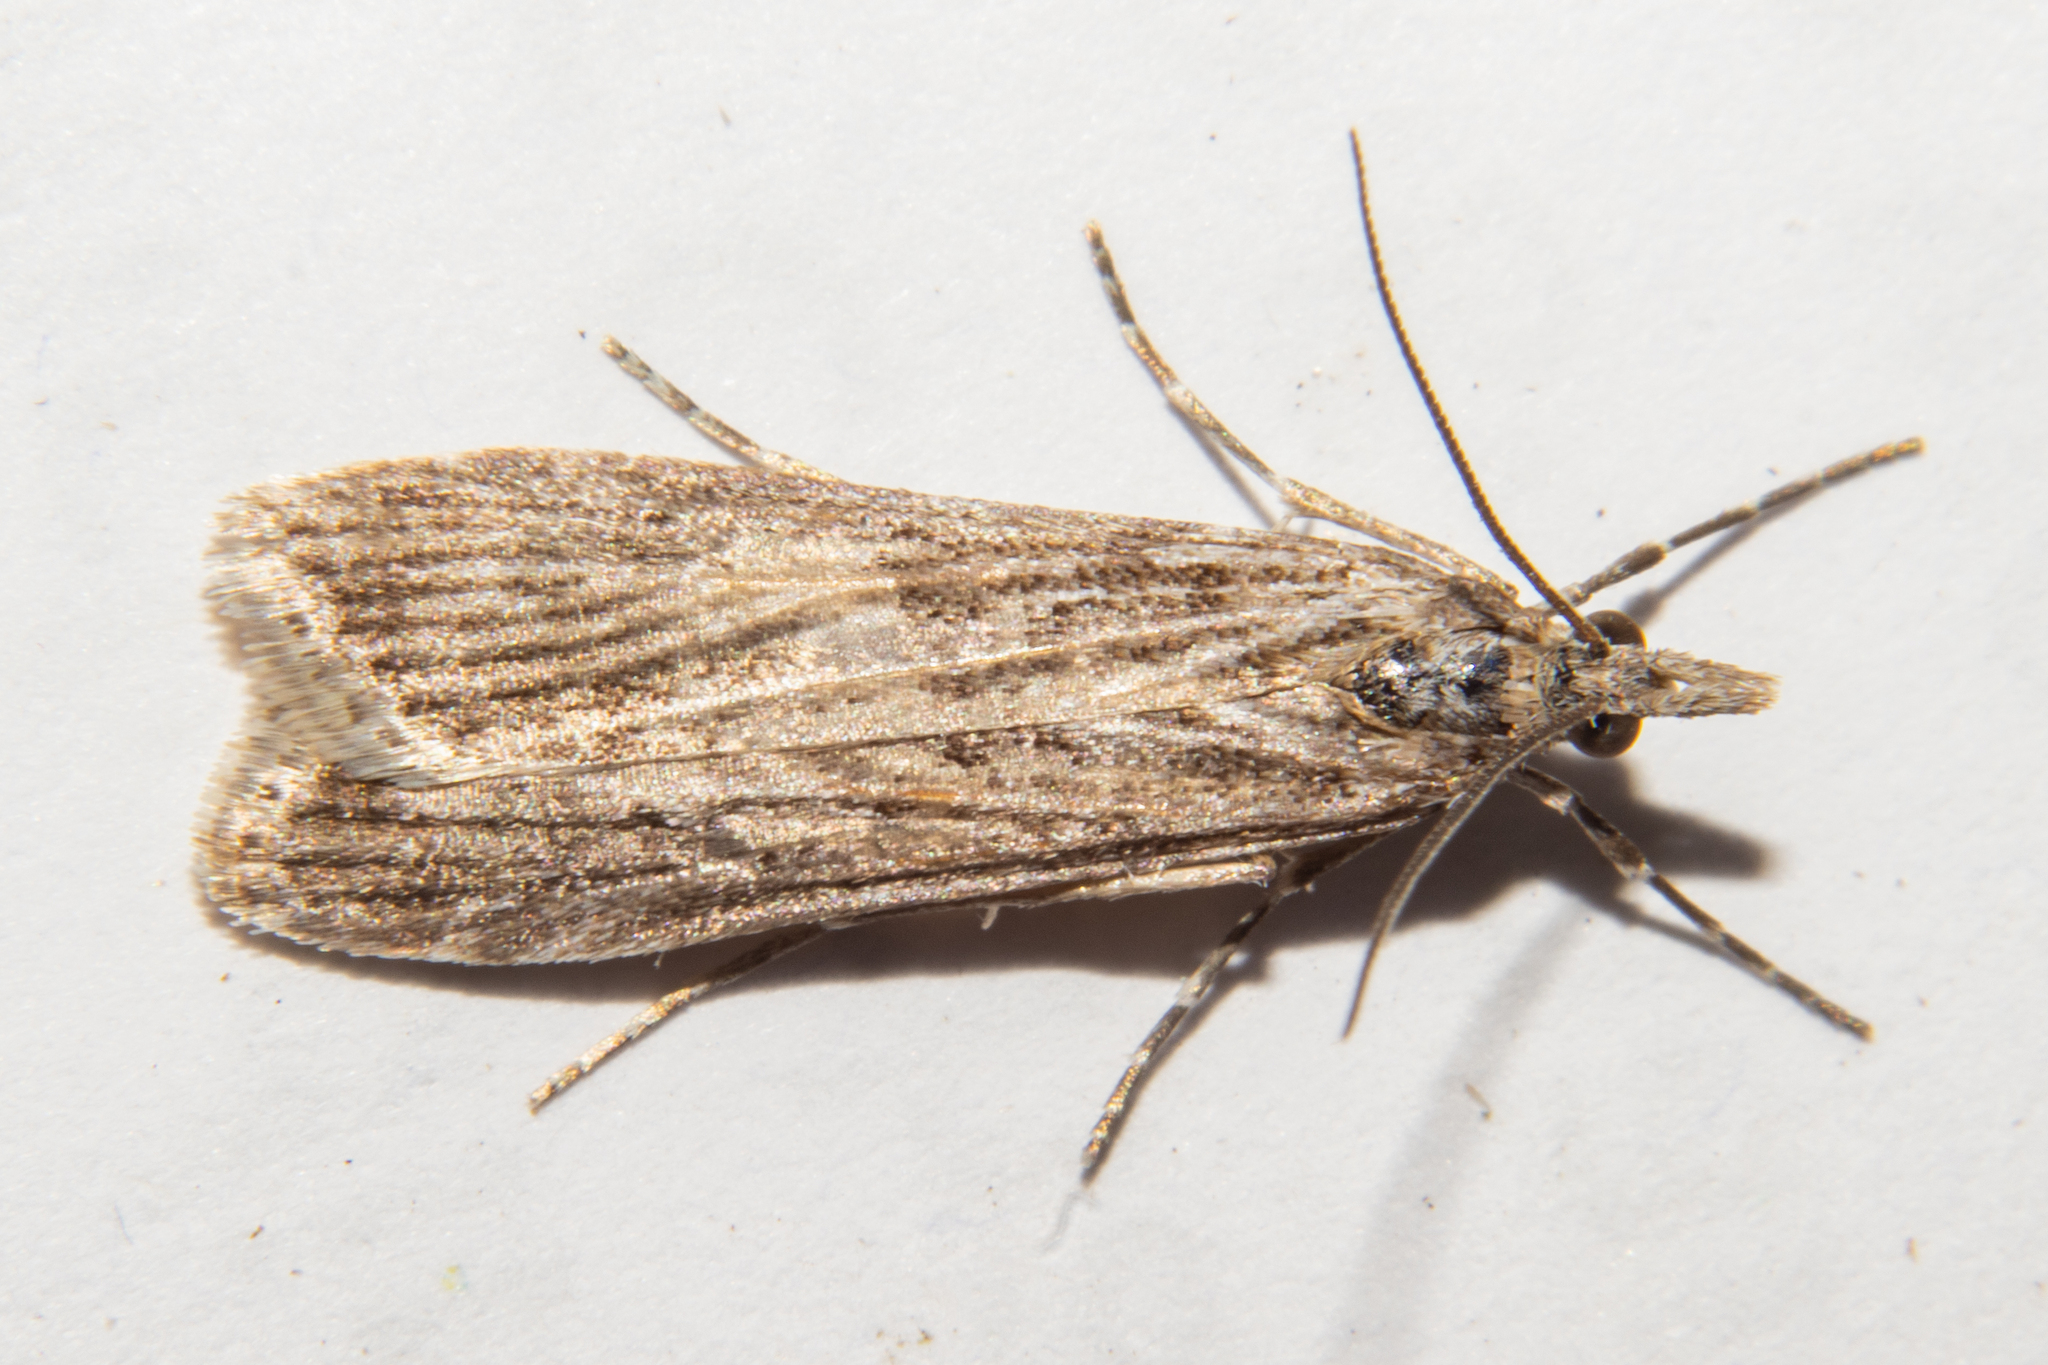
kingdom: Animalia
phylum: Arthropoda
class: Insecta
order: Lepidoptera
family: Crambidae
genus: Eudonia
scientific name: Eudonia atmogramma
